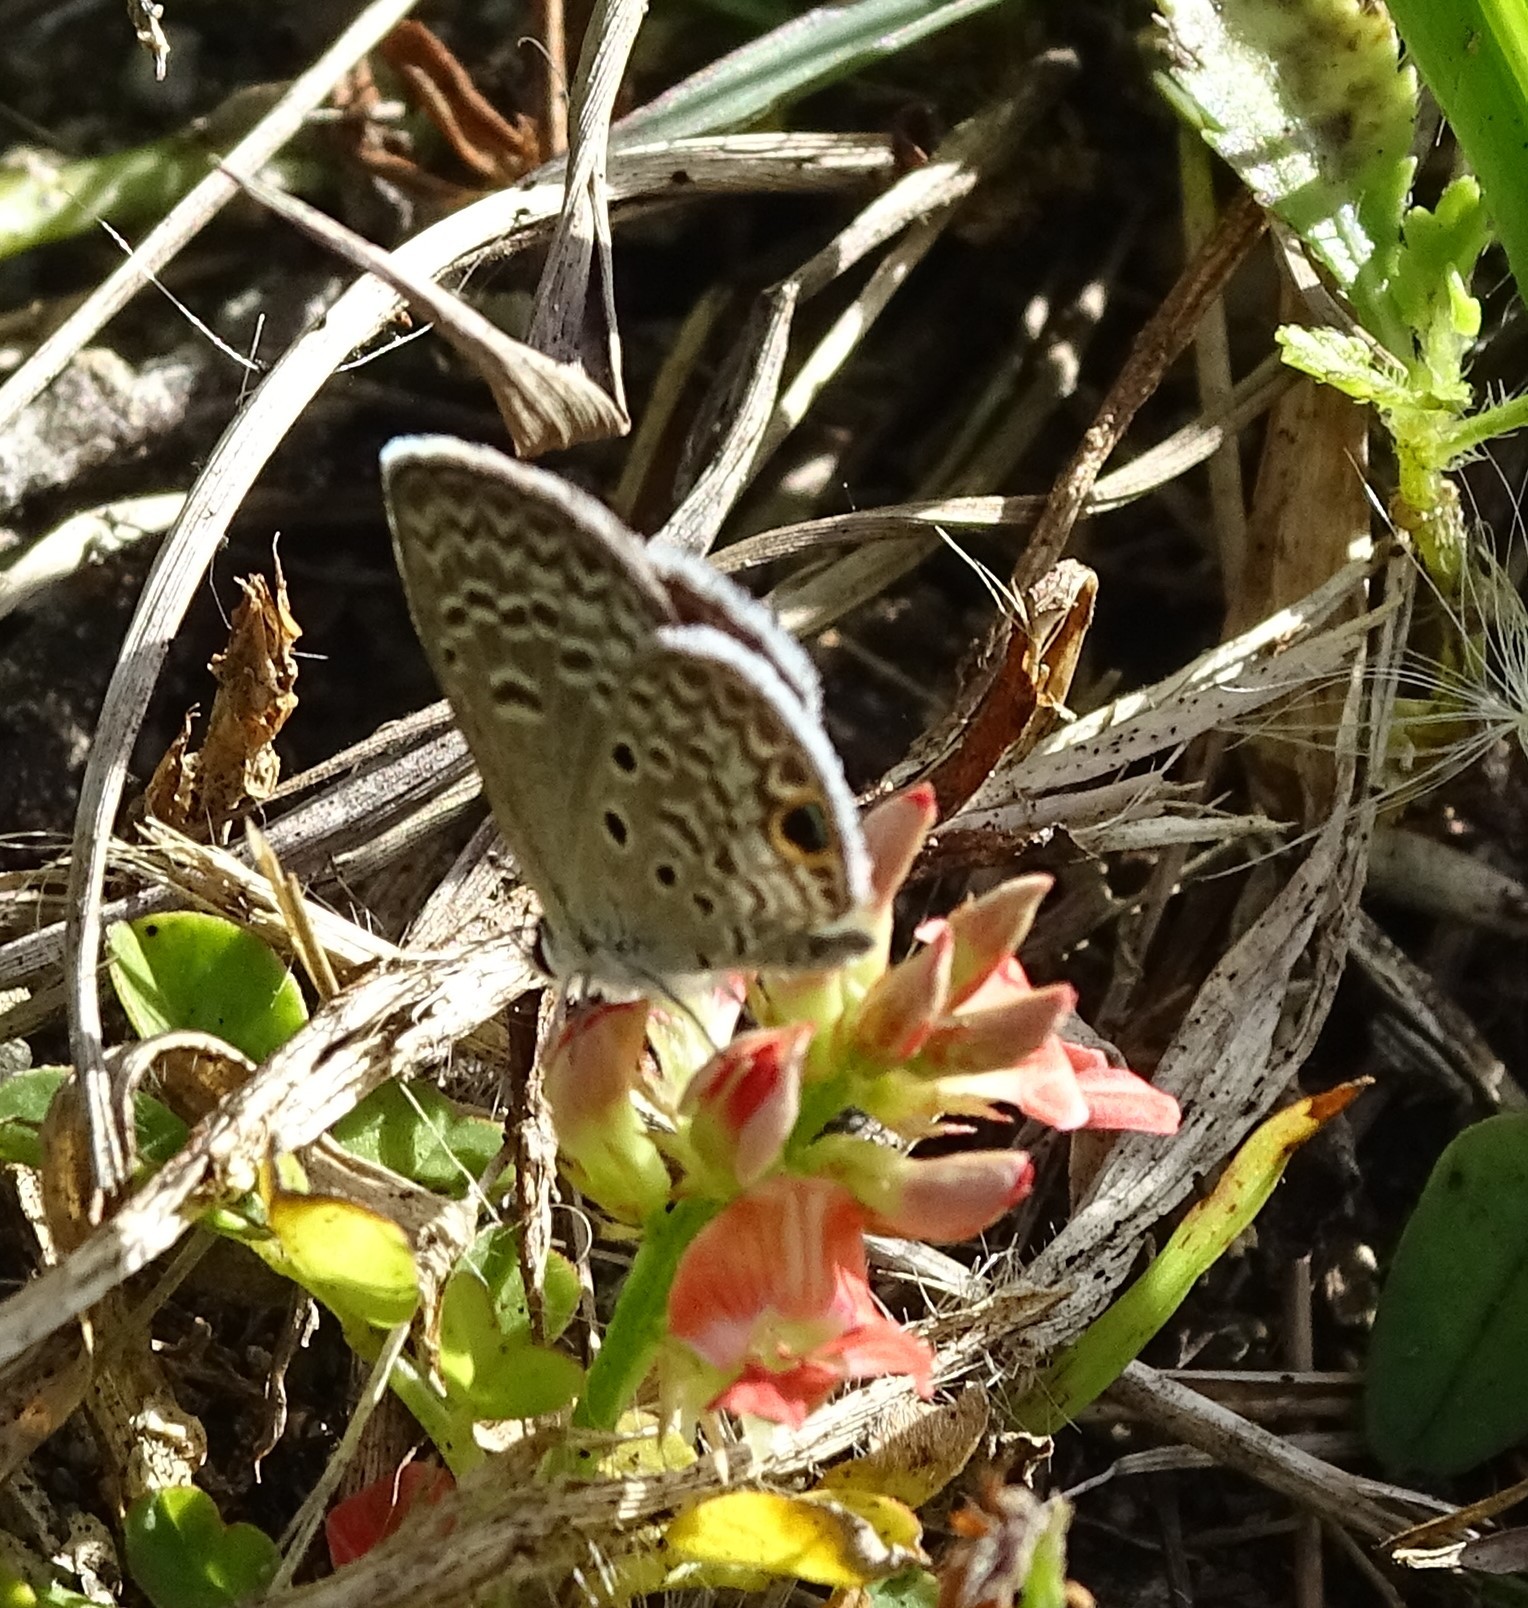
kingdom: Animalia
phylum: Arthropoda
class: Insecta
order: Lepidoptera
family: Lycaenidae
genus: Hemiargus
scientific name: Hemiargus ceraunus
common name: Ceraunus blue
